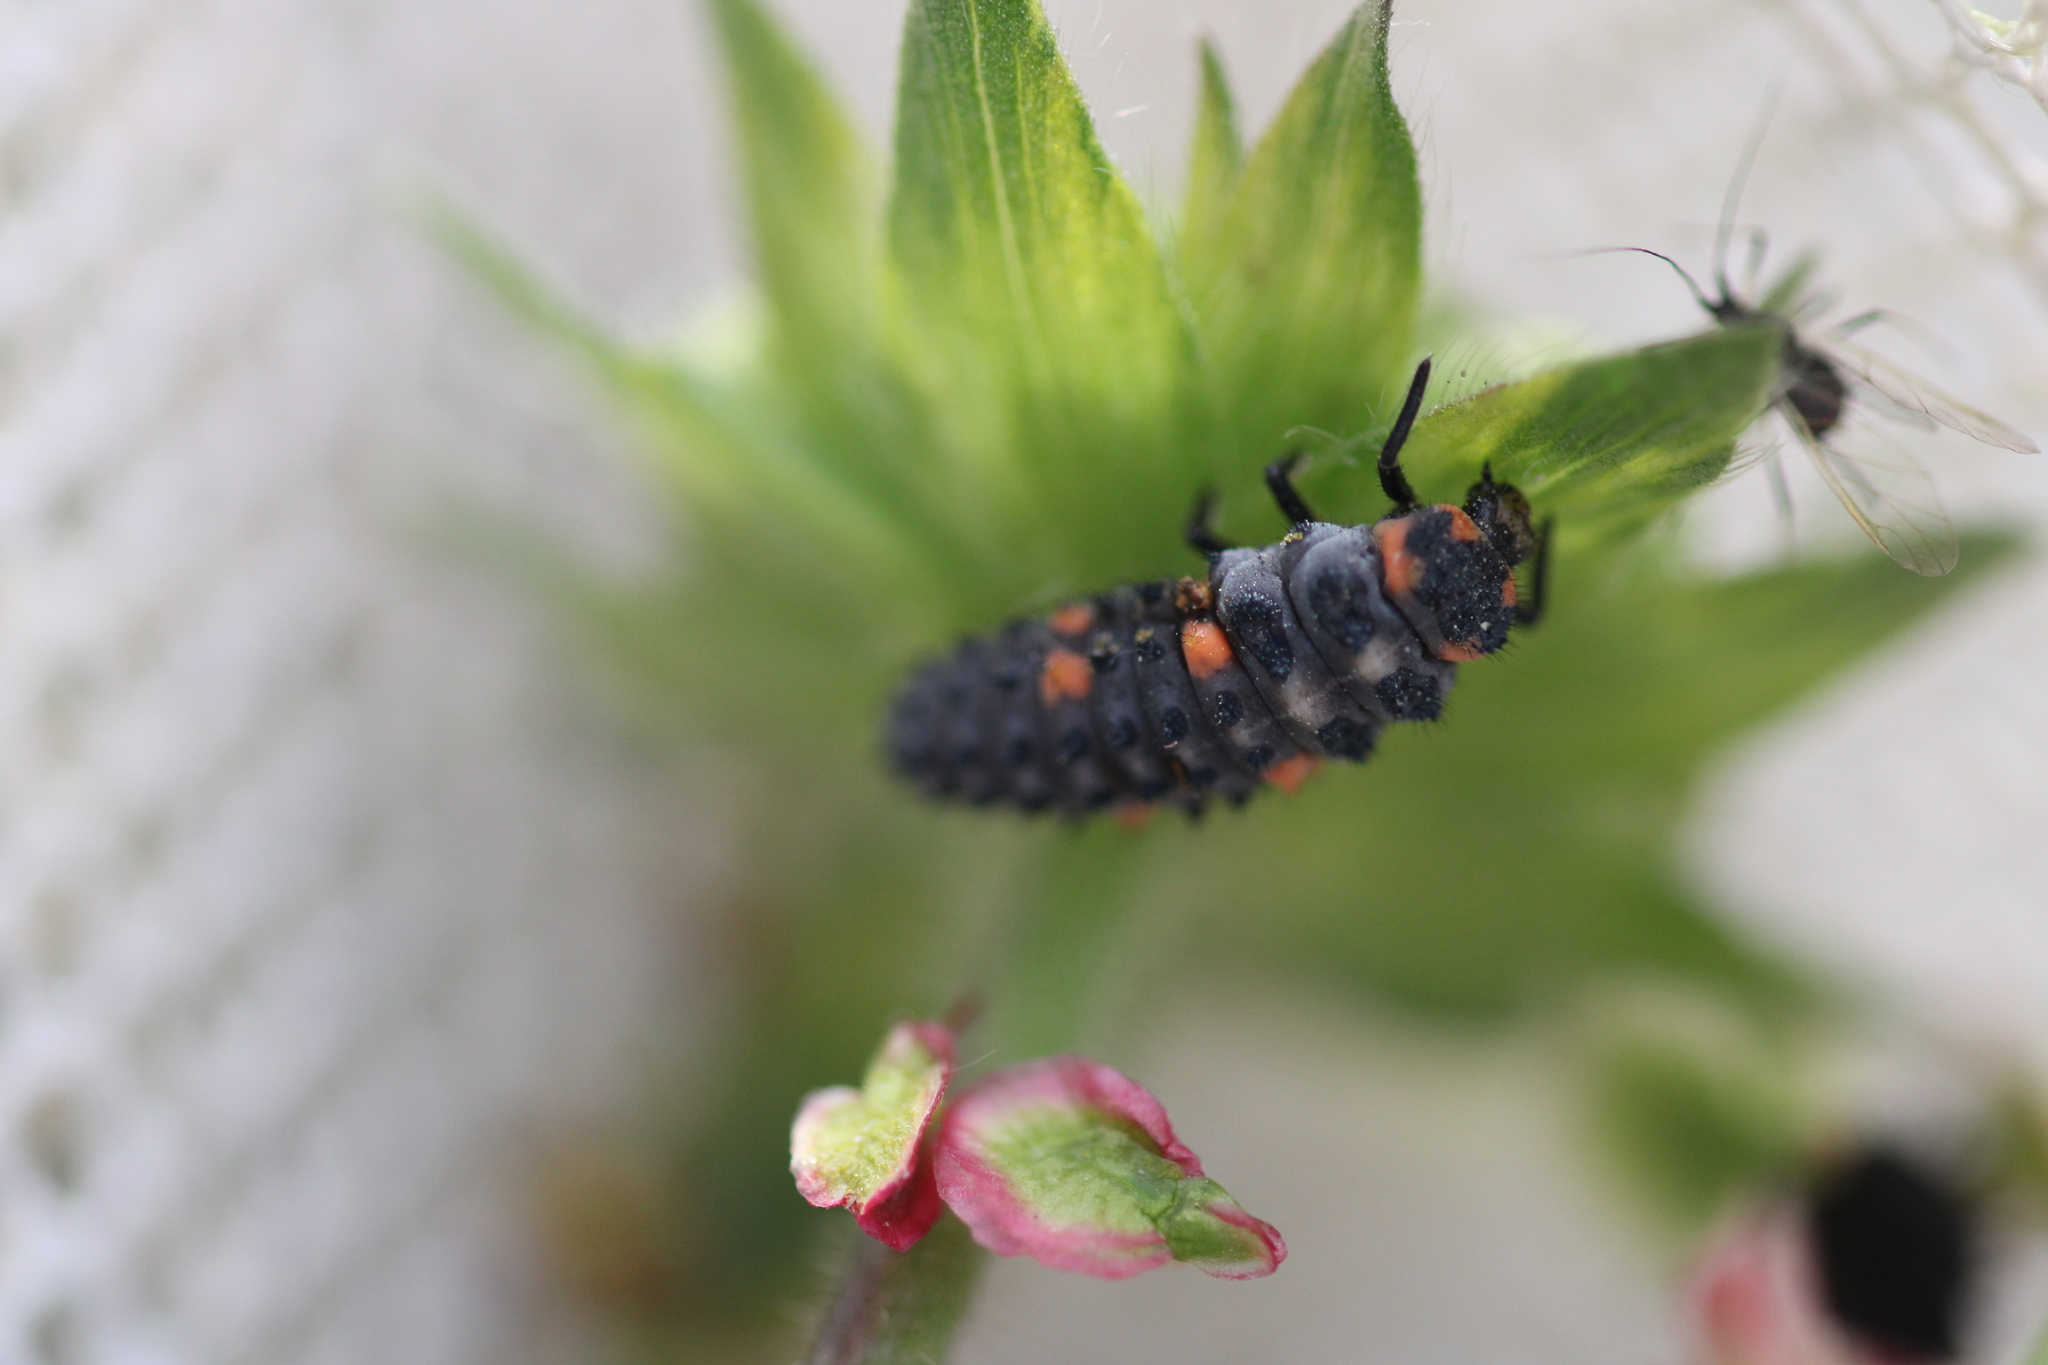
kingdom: Animalia
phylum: Arthropoda
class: Insecta
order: Coleoptera
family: Coccinellidae
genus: Coccinella
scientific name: Coccinella septempunctata
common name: Sevenspotted lady beetle
